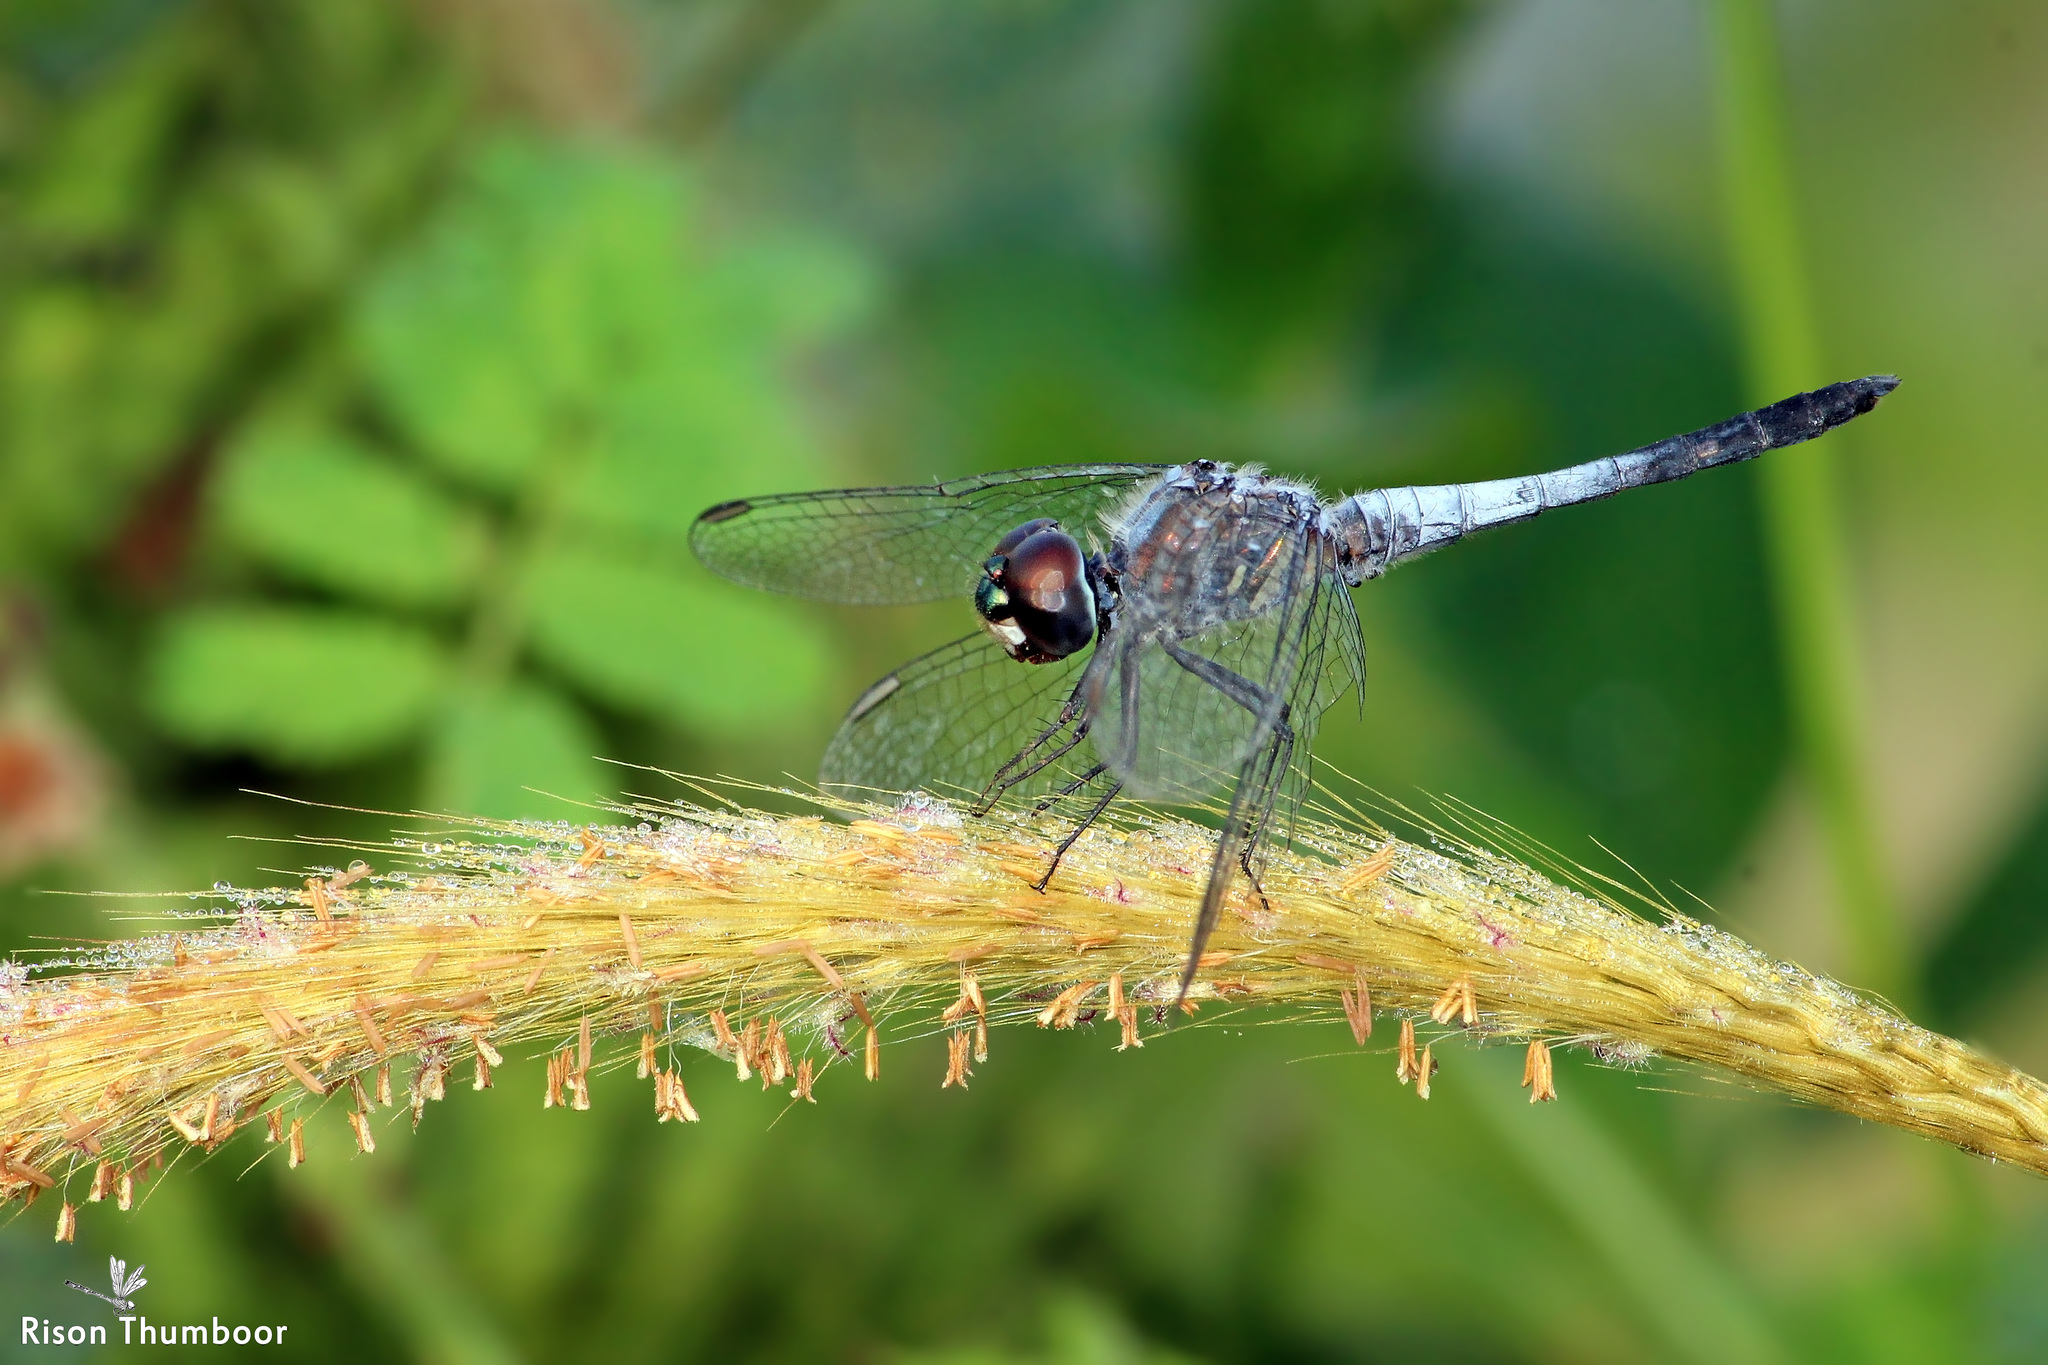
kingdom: Animalia
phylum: Arthropoda
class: Insecta
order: Odonata
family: Libellulidae
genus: Brachydiplax
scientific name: Brachydiplax sobrina
